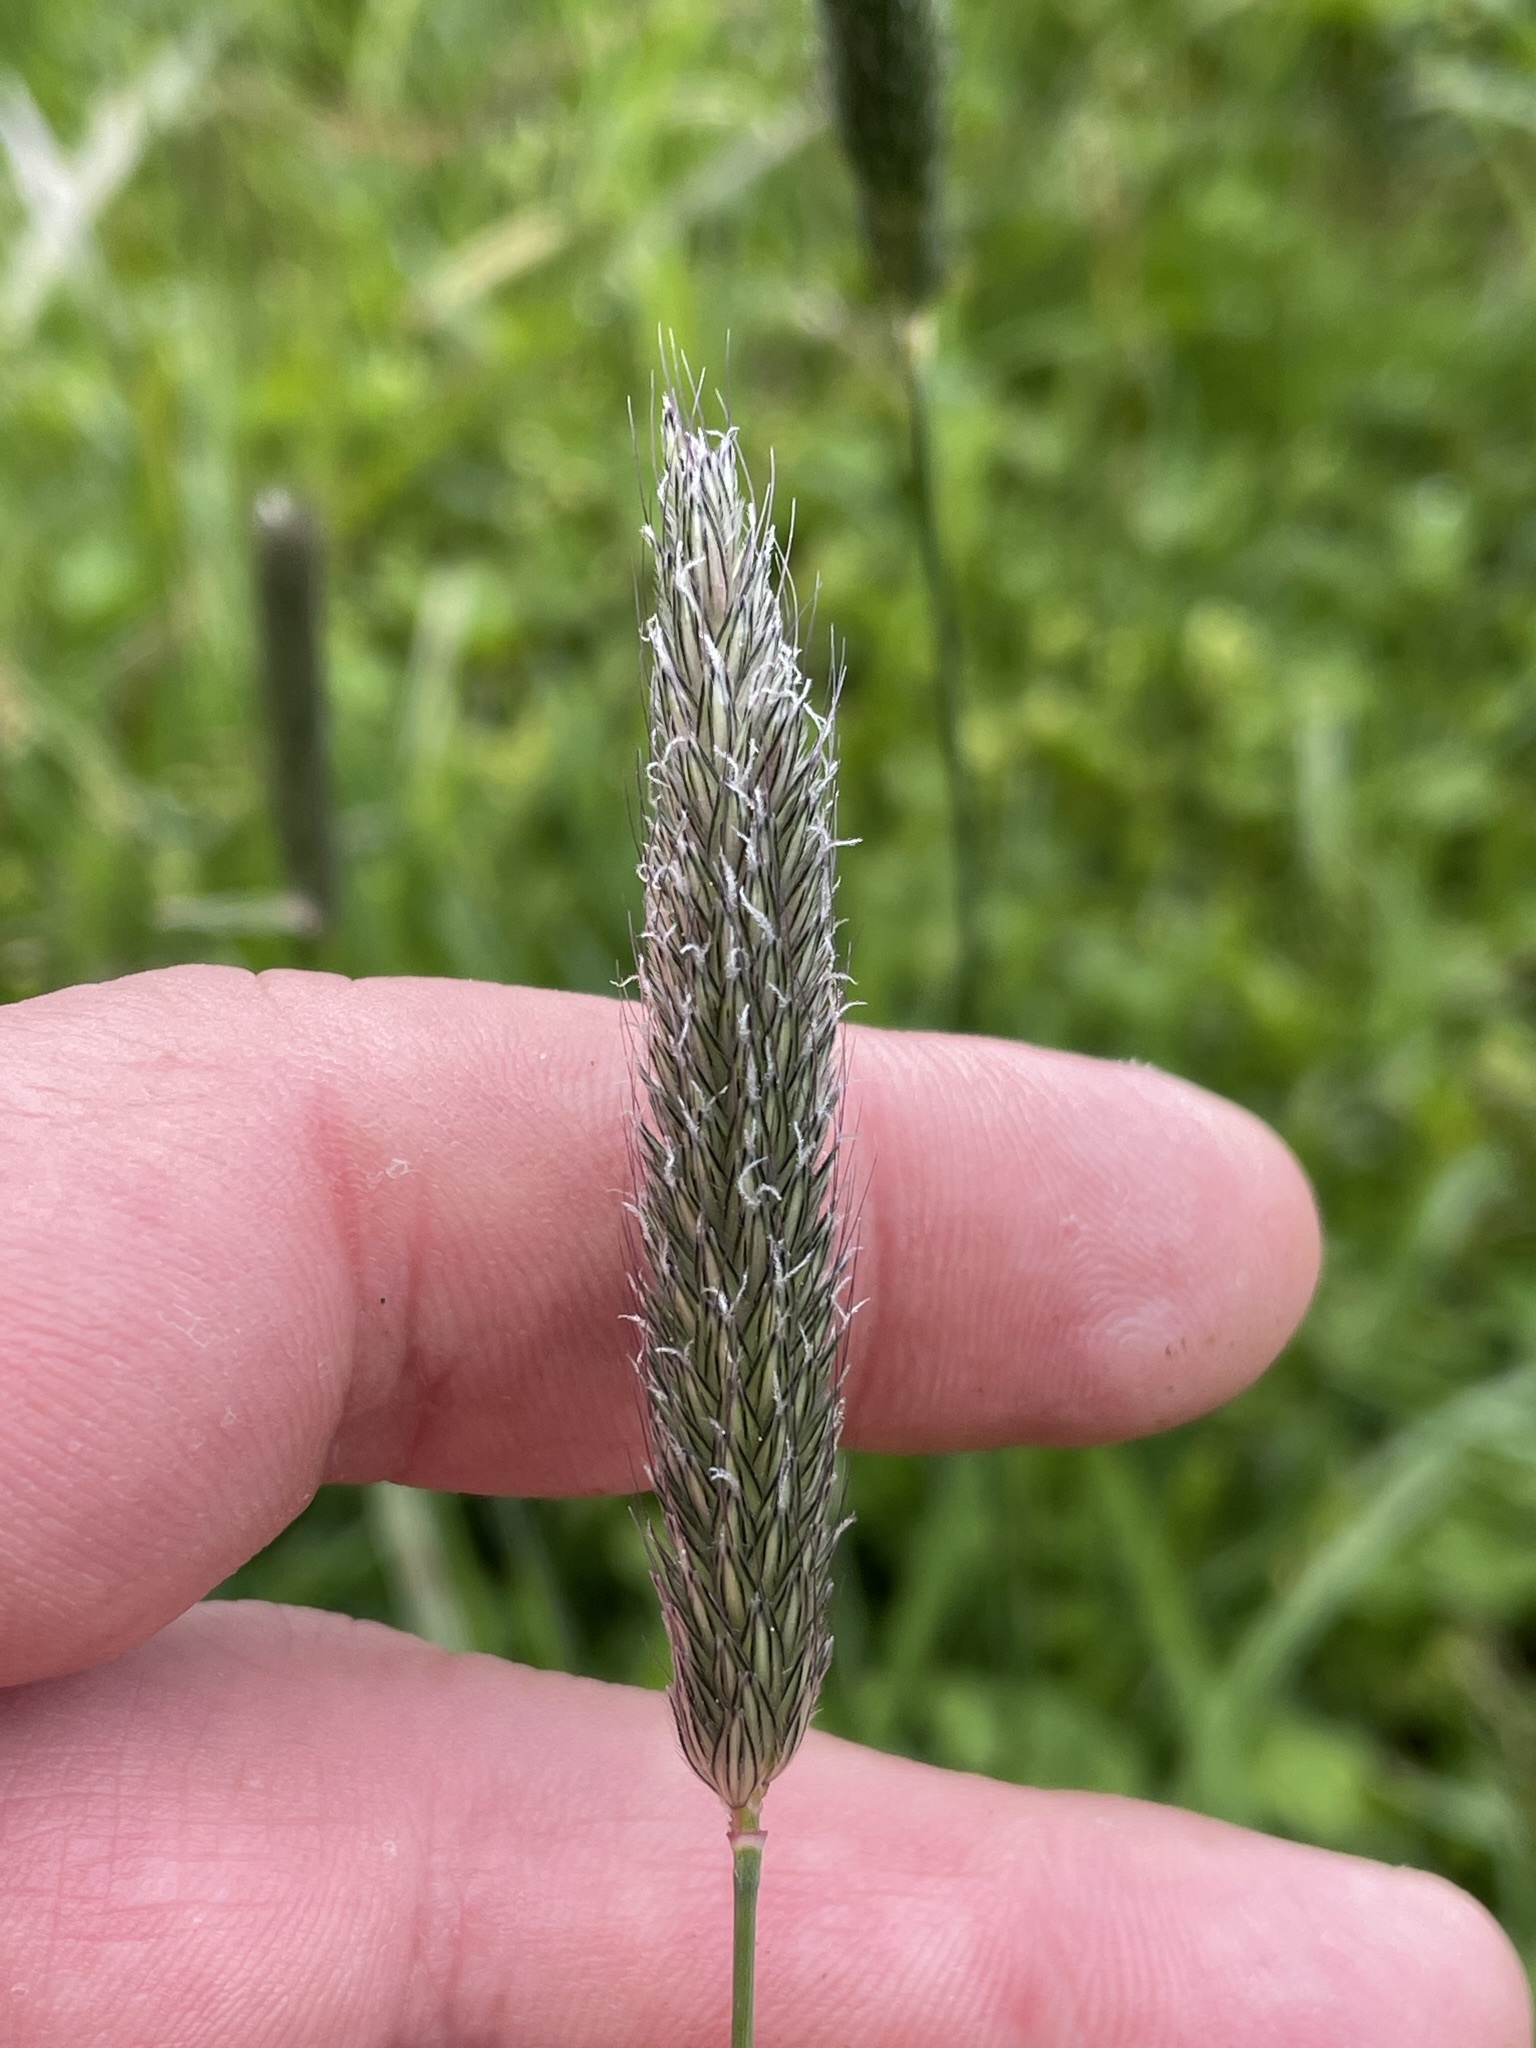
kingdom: Plantae
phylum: Tracheophyta
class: Liliopsida
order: Poales
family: Poaceae
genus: Alopecurus
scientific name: Alopecurus pratensis
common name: Meadow foxtail
